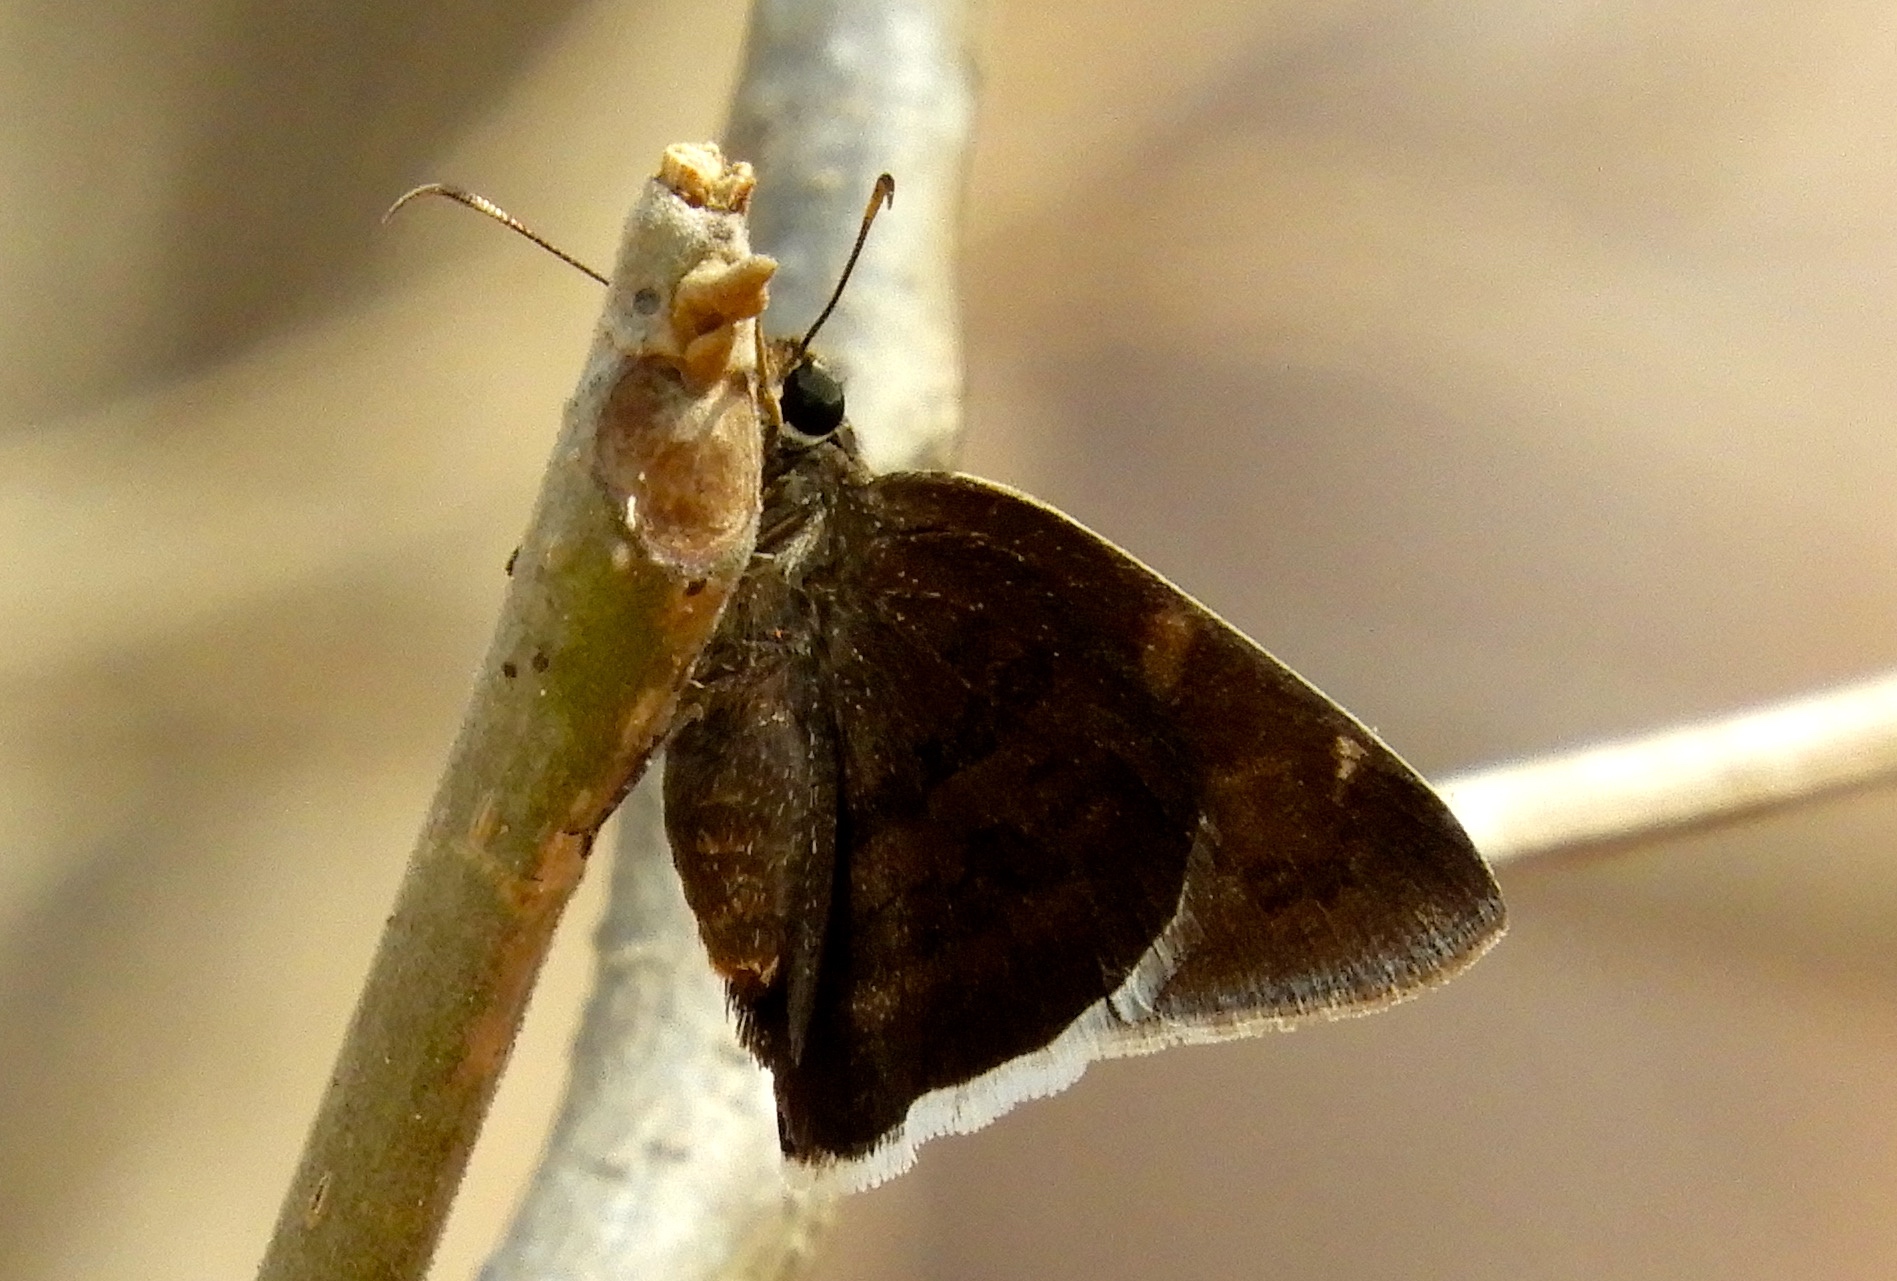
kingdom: Animalia
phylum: Arthropoda
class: Insecta
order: Lepidoptera
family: Hesperiidae
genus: Achalarus
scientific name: Achalarus Murgaria albociliatus
